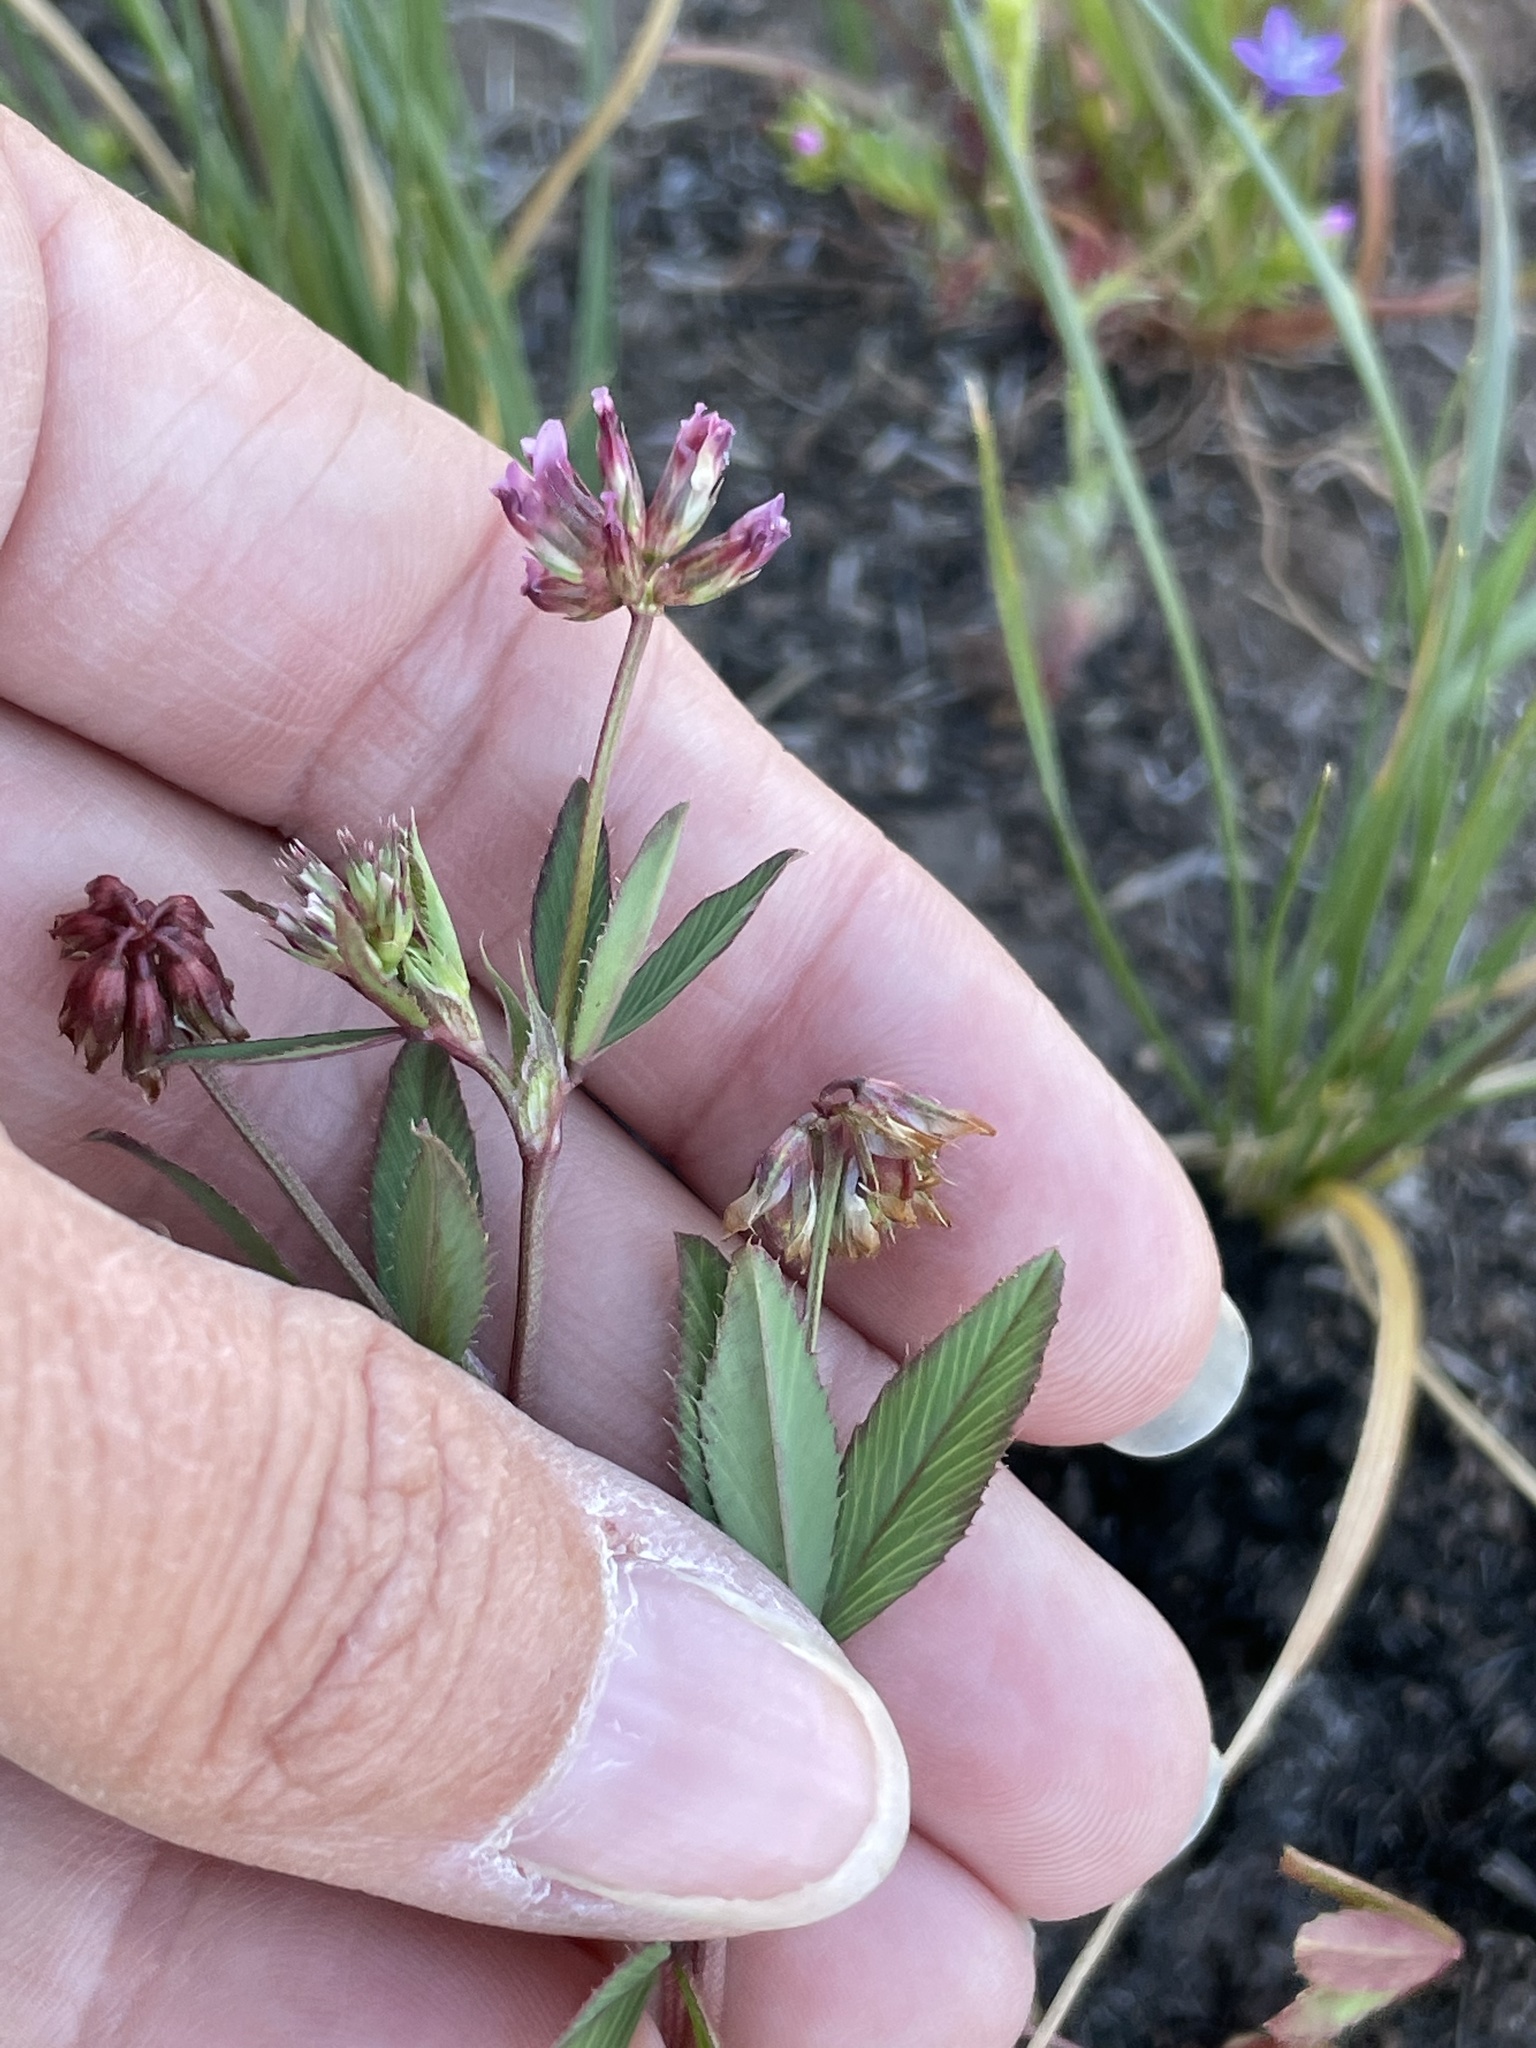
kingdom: Plantae
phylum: Tracheophyta
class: Magnoliopsida
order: Fabales
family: Fabaceae
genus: Trifolium
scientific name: Trifolium palmeri
